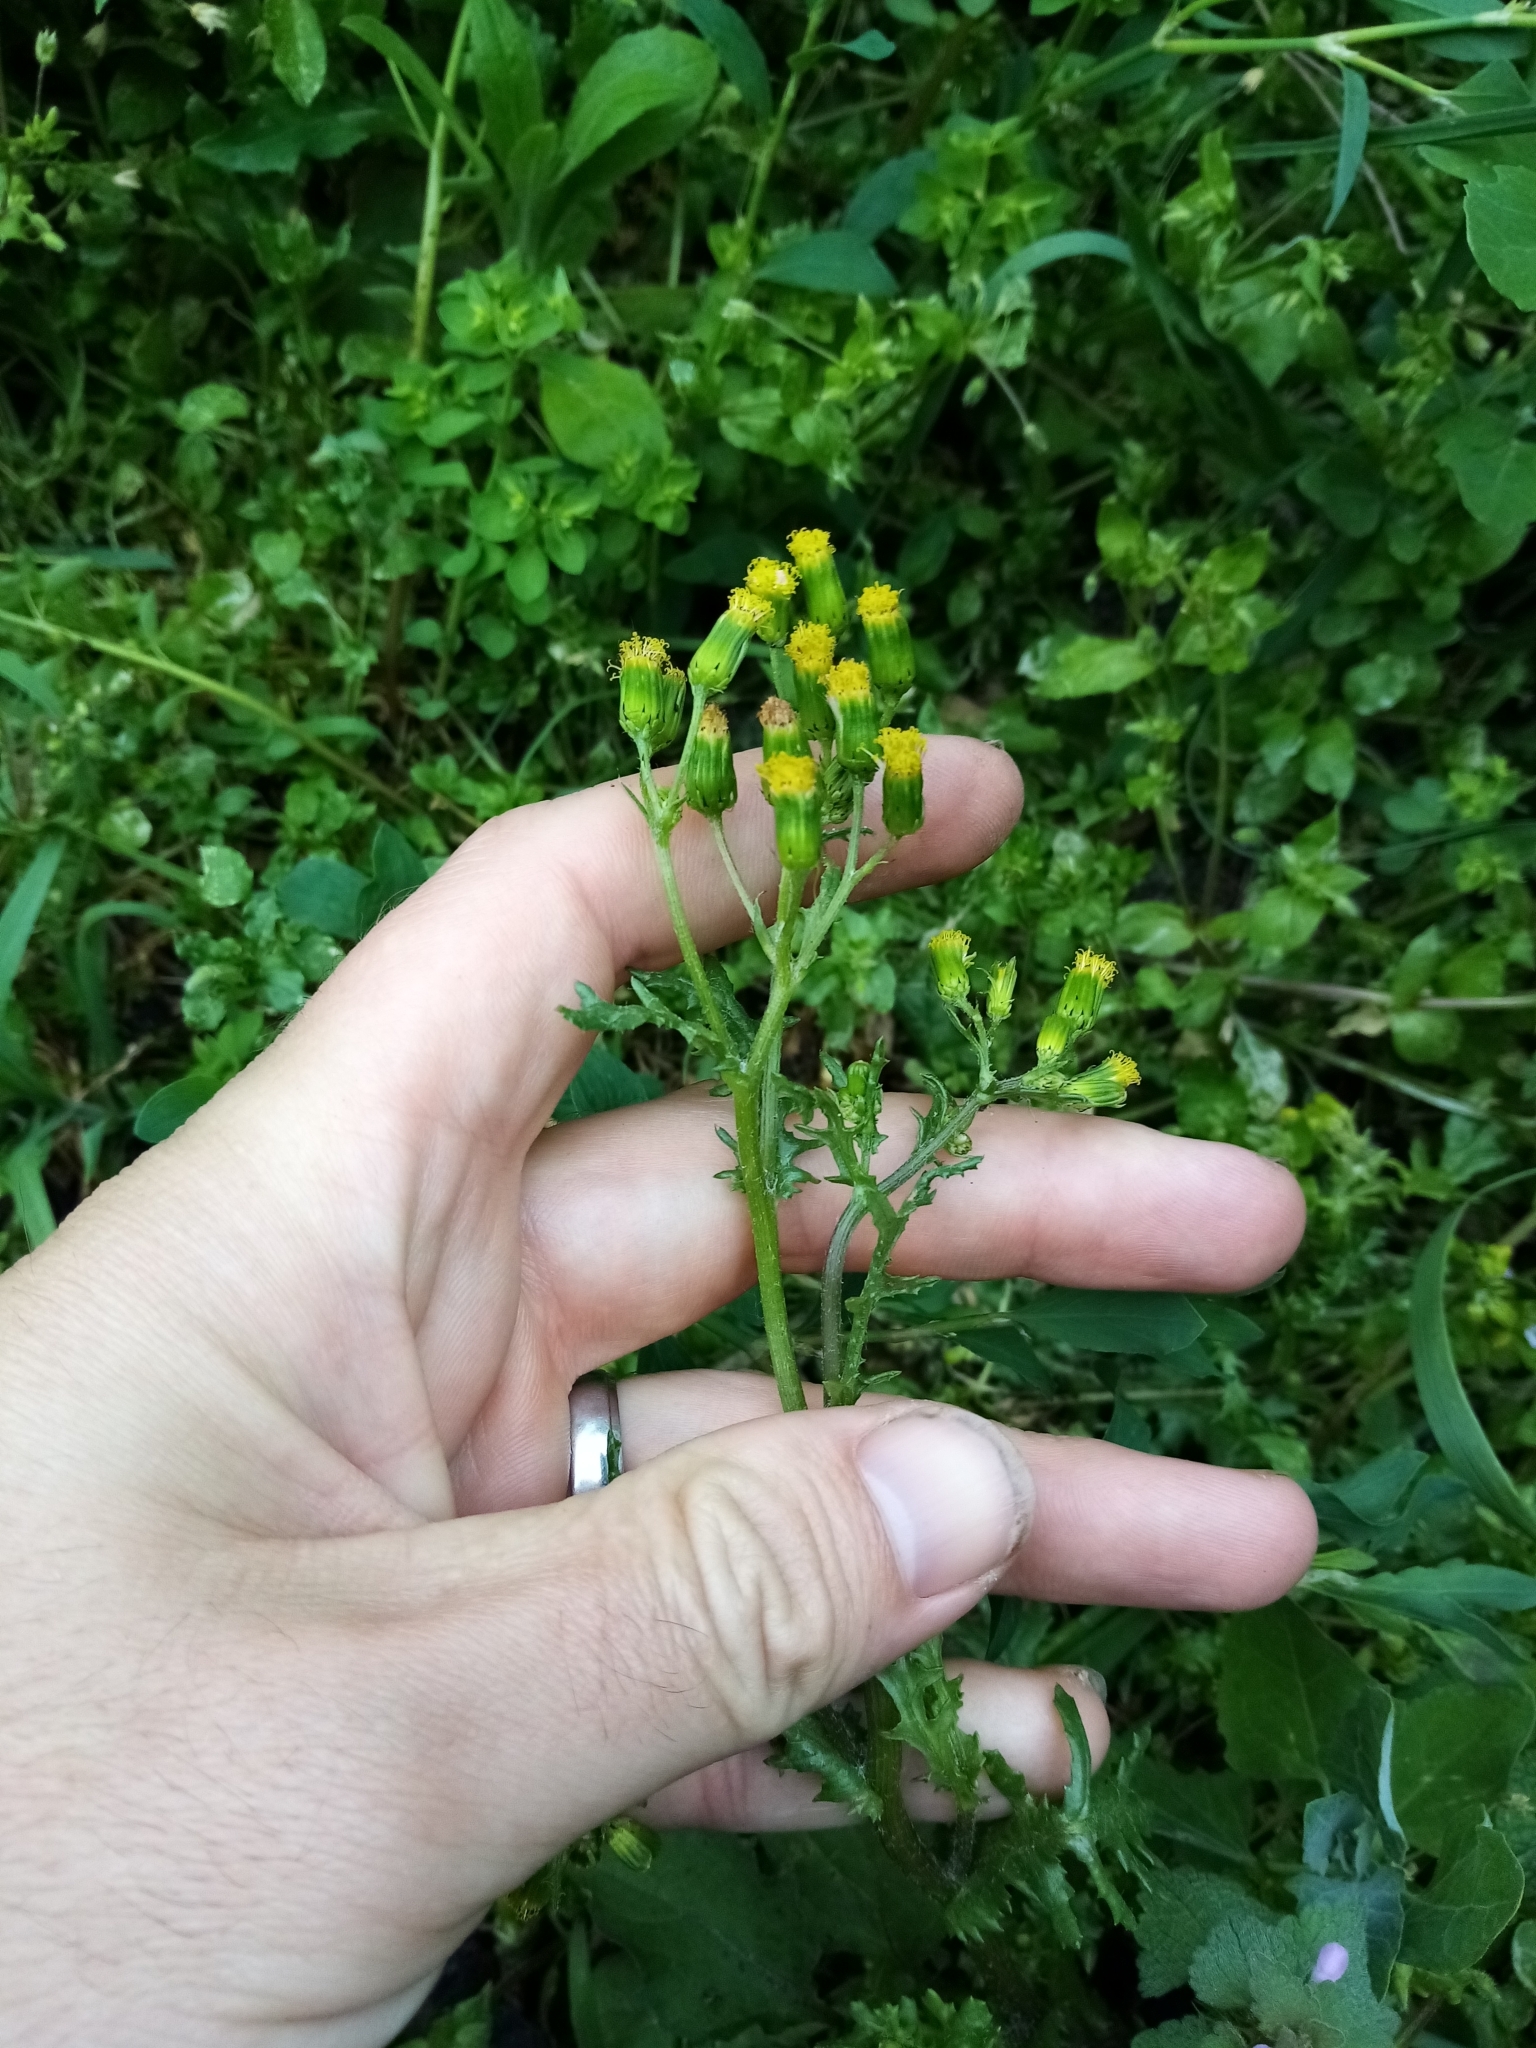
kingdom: Plantae
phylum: Tracheophyta
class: Magnoliopsida
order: Asterales
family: Asteraceae
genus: Senecio
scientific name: Senecio vulgaris
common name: Old-man-in-the-spring
